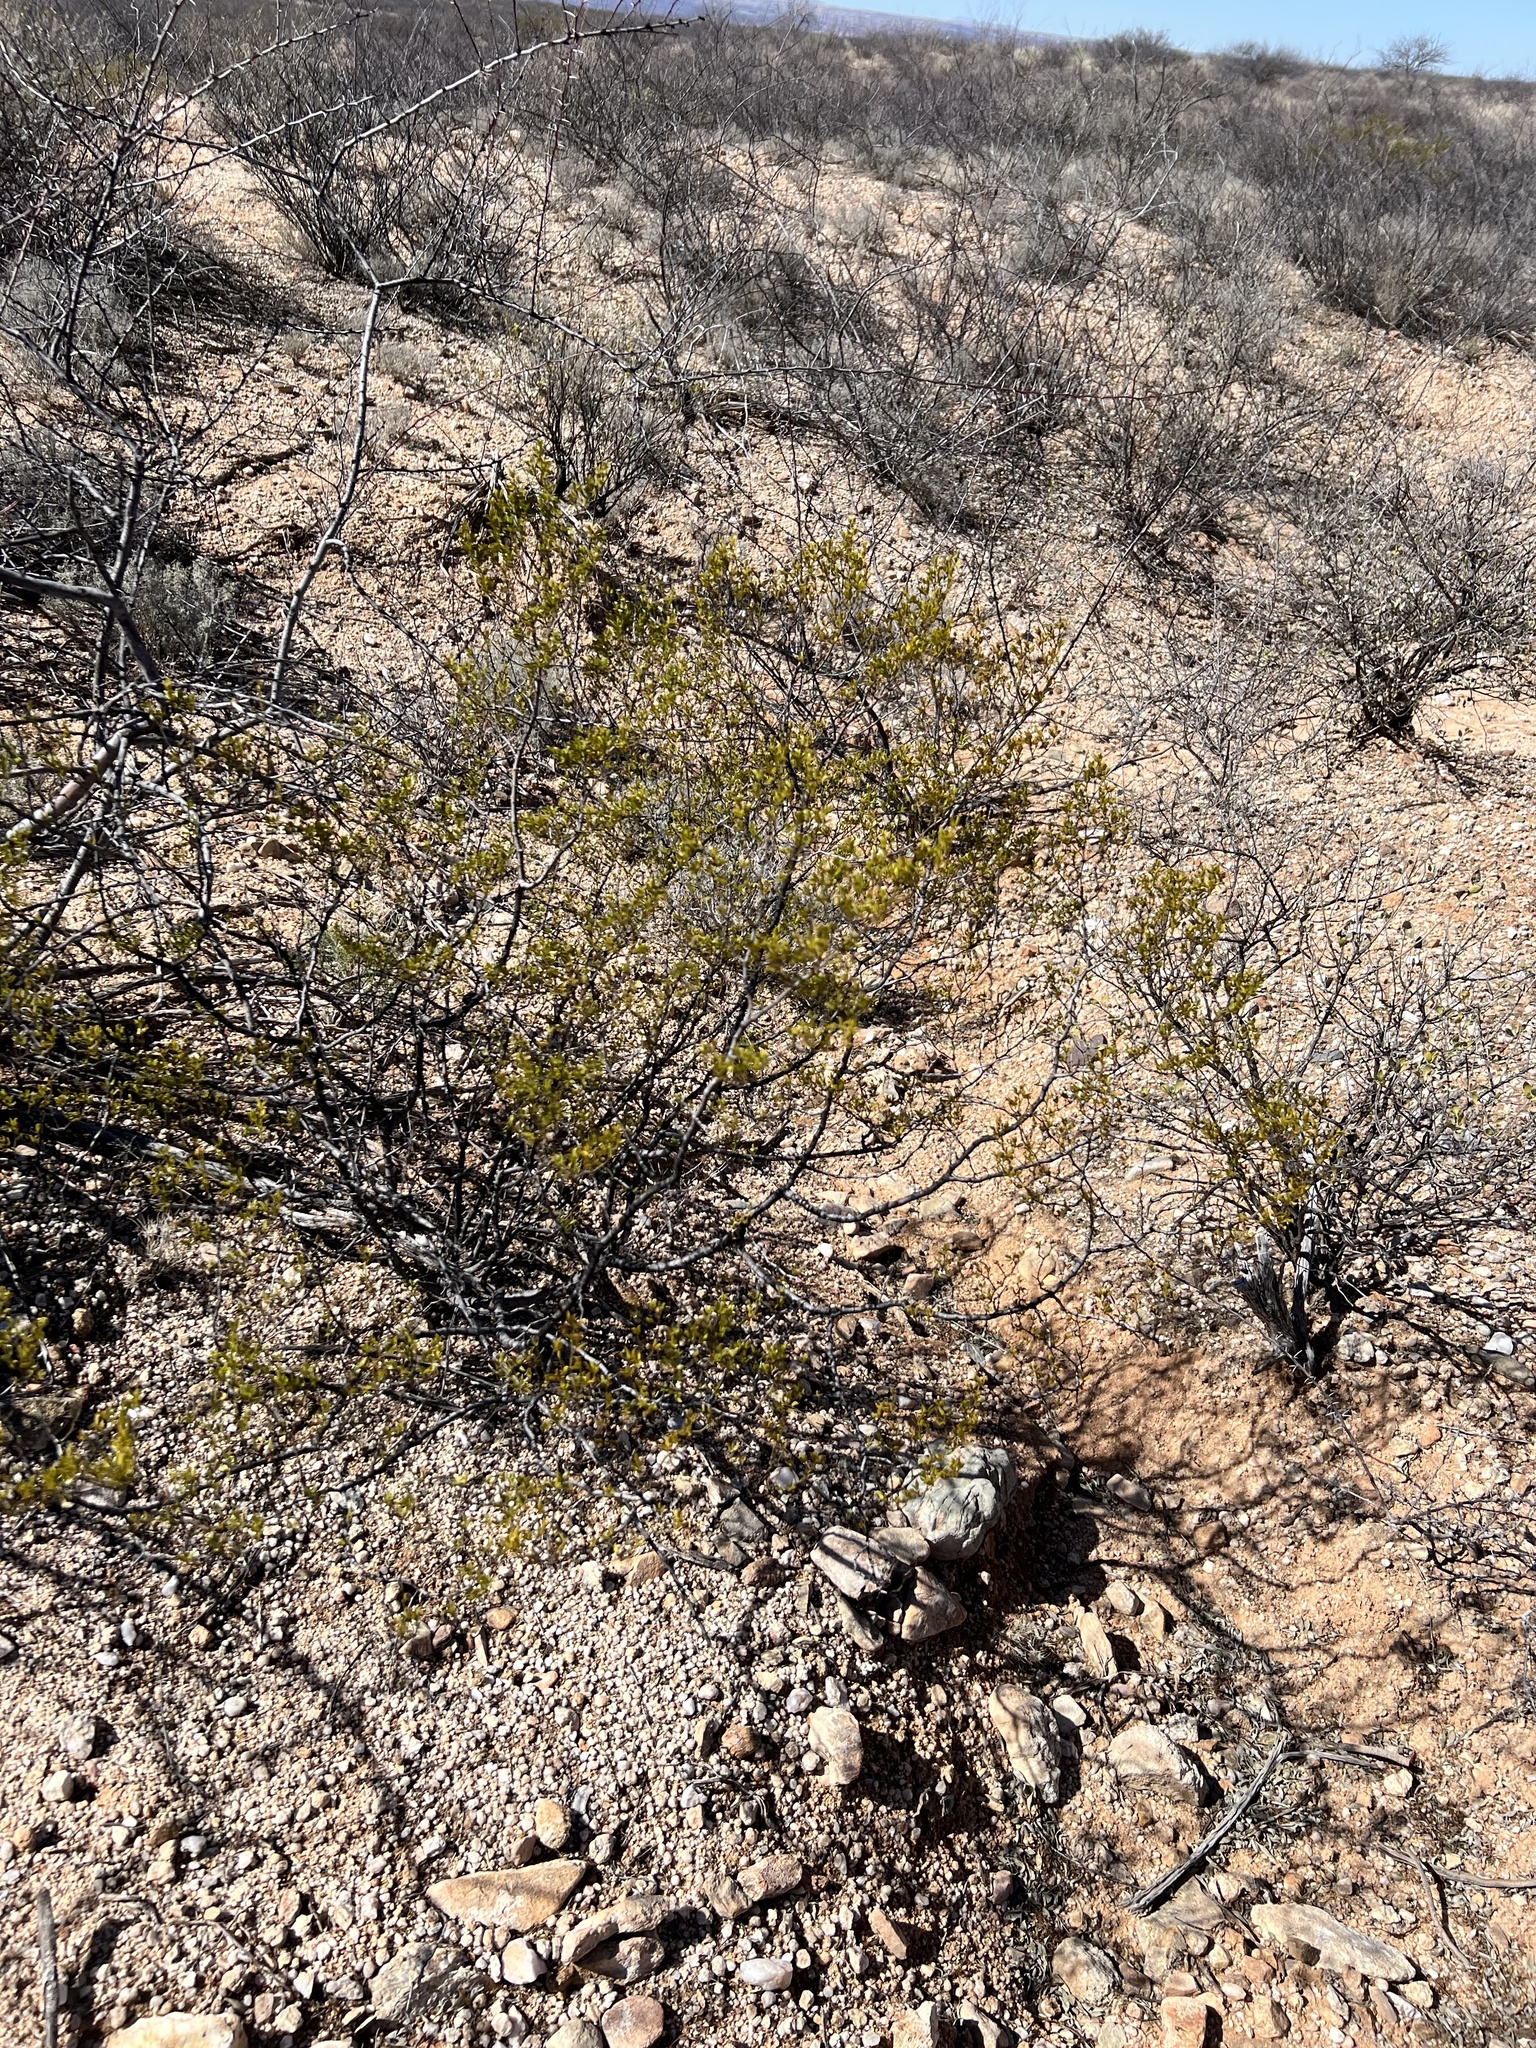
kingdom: Plantae
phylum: Tracheophyta
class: Magnoliopsida
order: Zygophyllales
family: Zygophyllaceae
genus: Larrea
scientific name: Larrea tridentata
